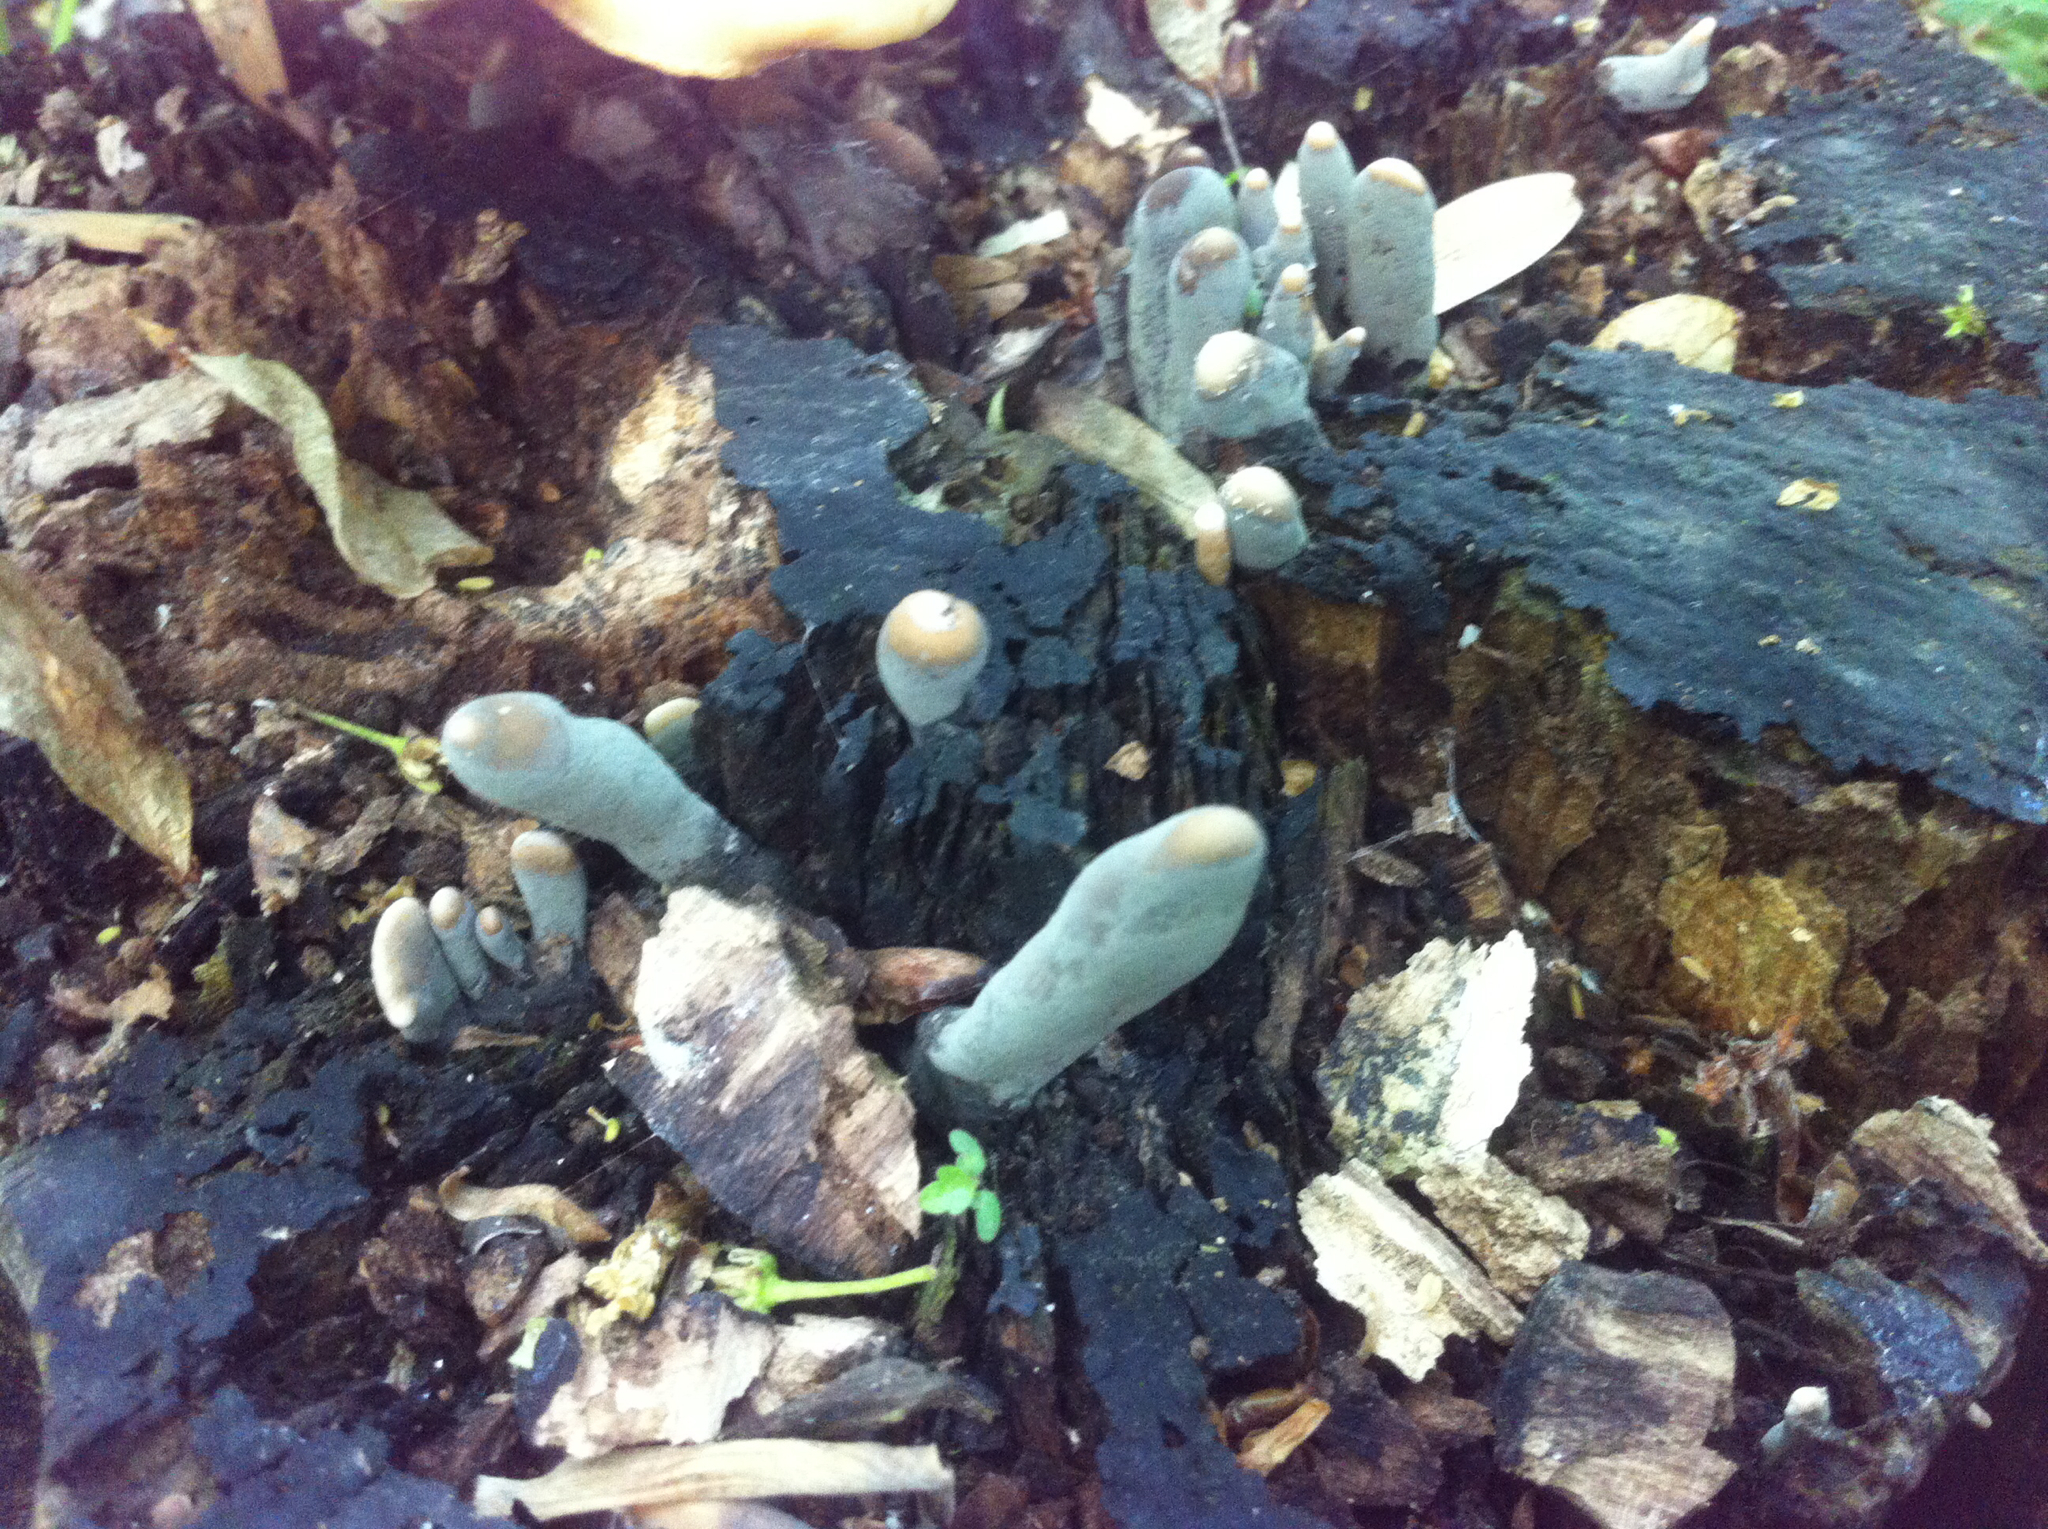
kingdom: Fungi
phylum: Ascomycota
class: Sordariomycetes
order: Xylariales
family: Xylariaceae
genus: Xylaria
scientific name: Xylaria polymorpha
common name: Dead man's fingers
